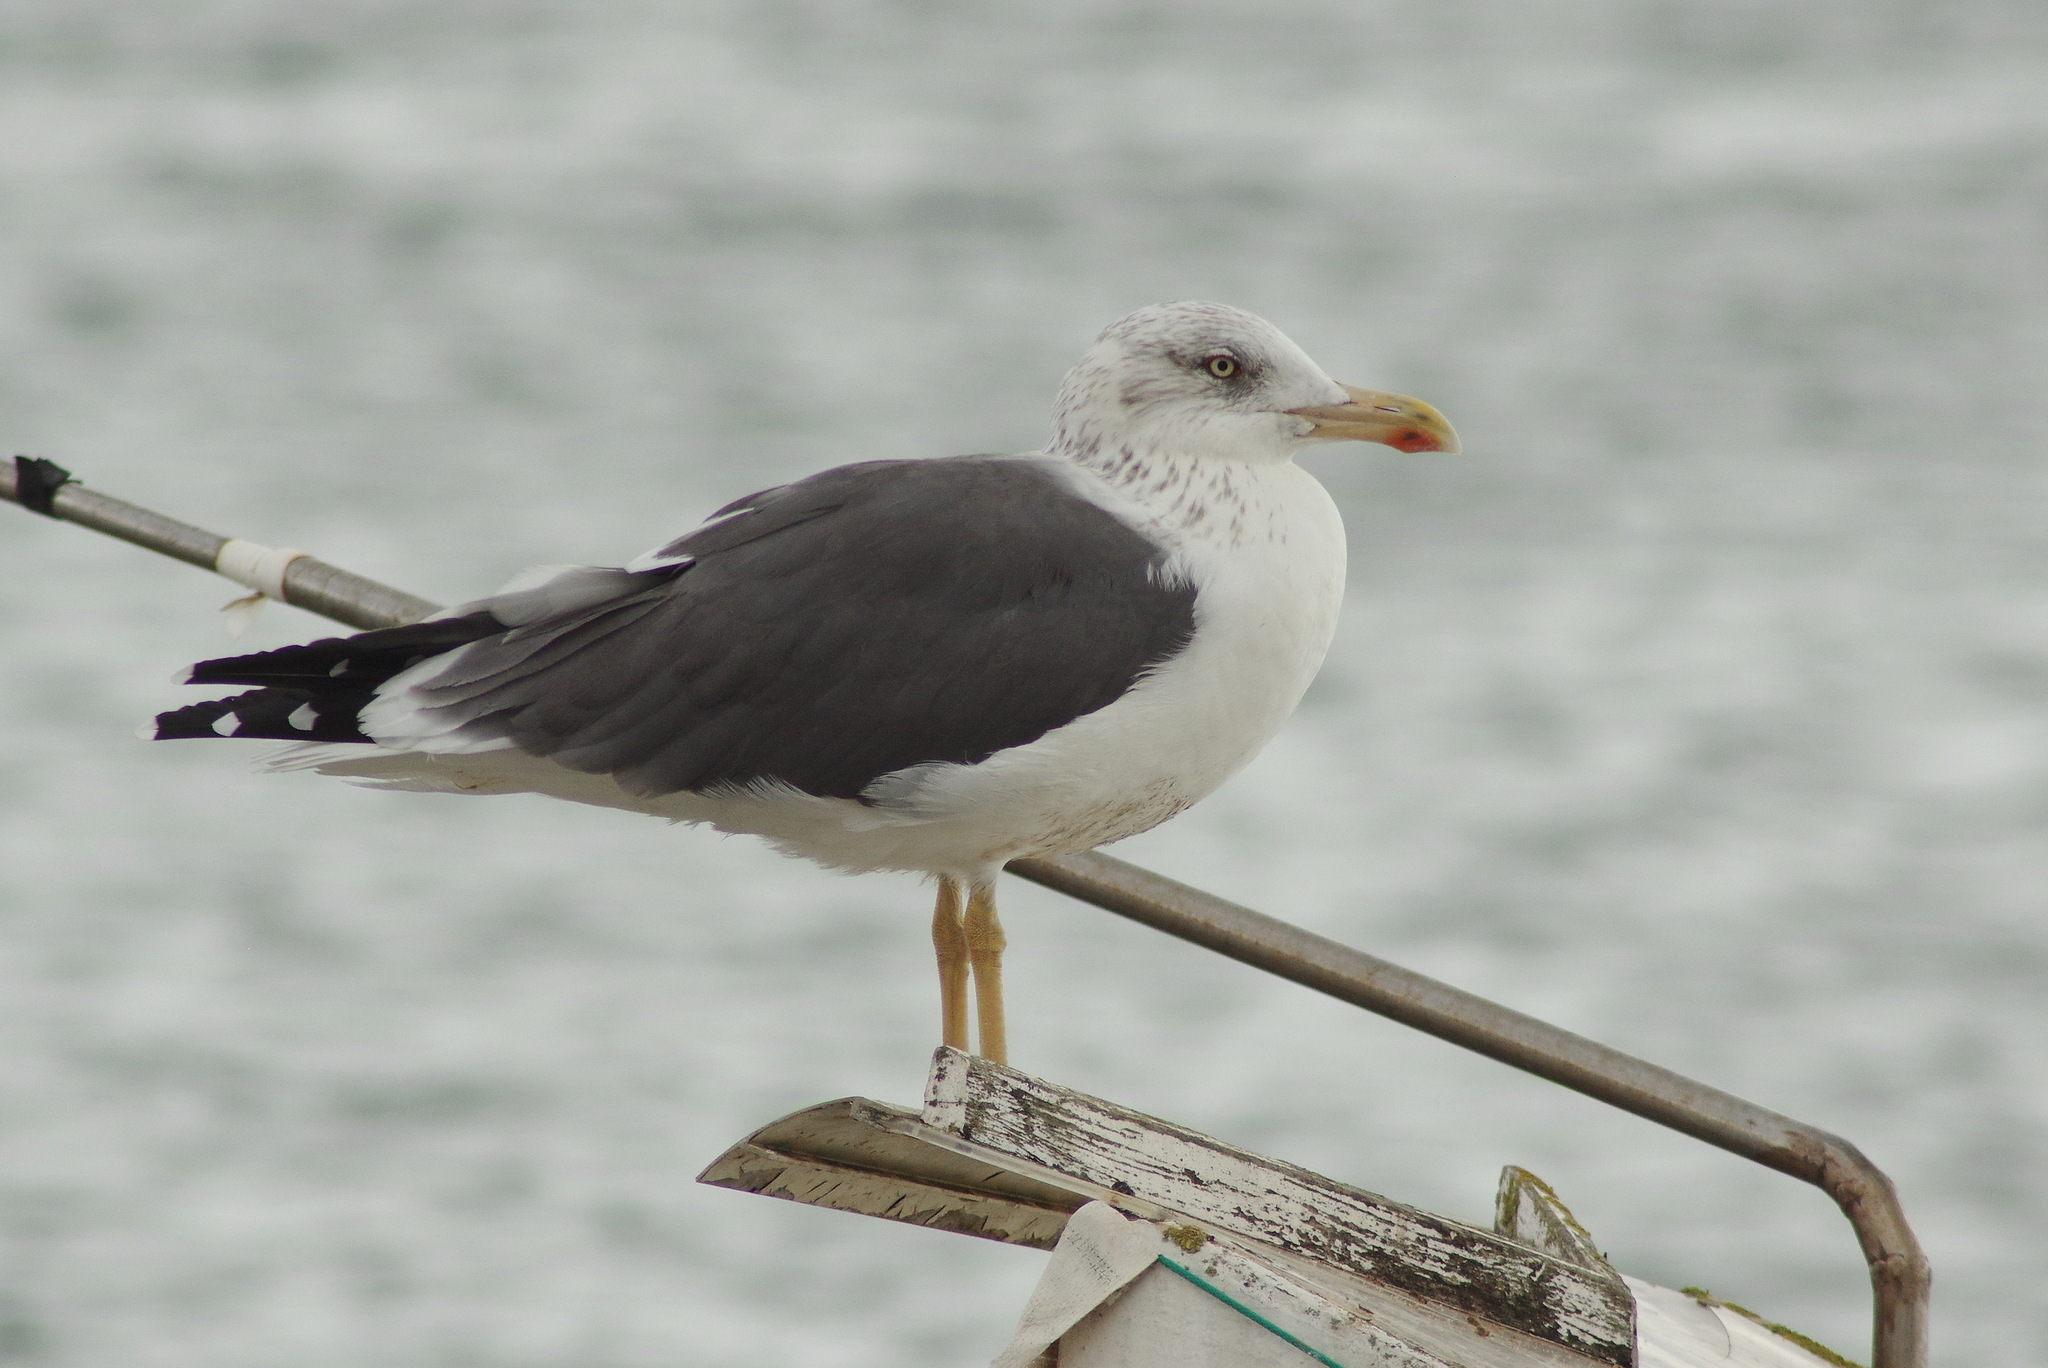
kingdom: Animalia
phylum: Chordata
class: Aves
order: Charadriiformes
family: Laridae
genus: Larus
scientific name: Larus fuscus
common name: Lesser black-backed gull
